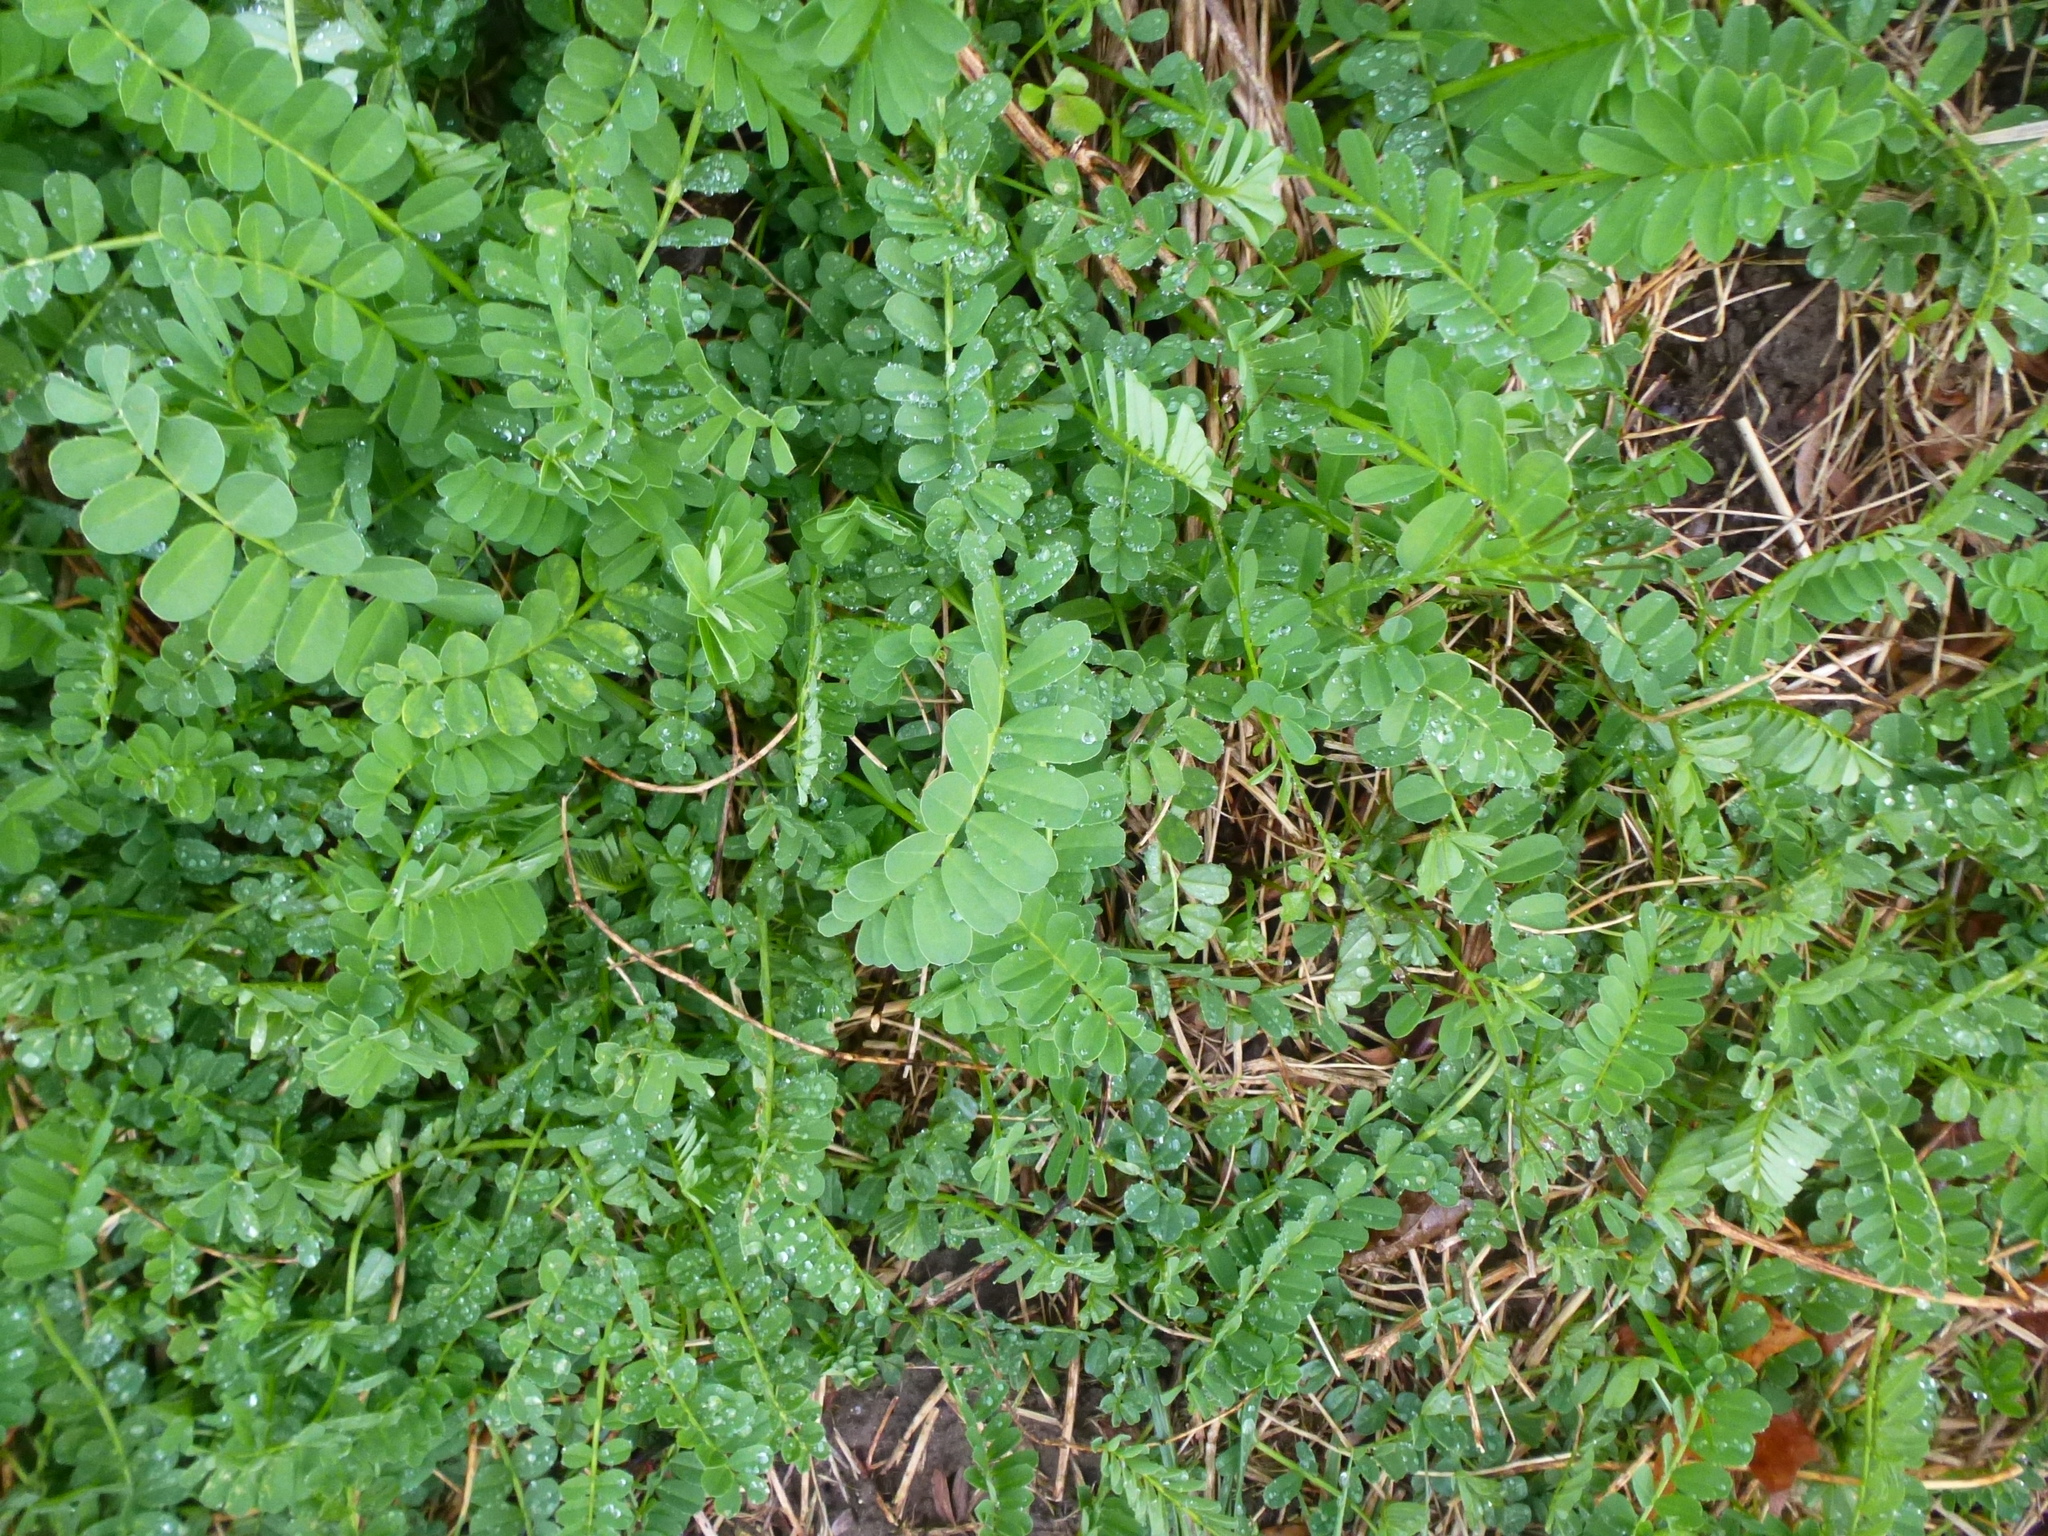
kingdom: Plantae
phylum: Tracheophyta
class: Magnoliopsida
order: Fabales
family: Fabaceae
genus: Coronilla
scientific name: Coronilla varia
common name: Crownvetch
